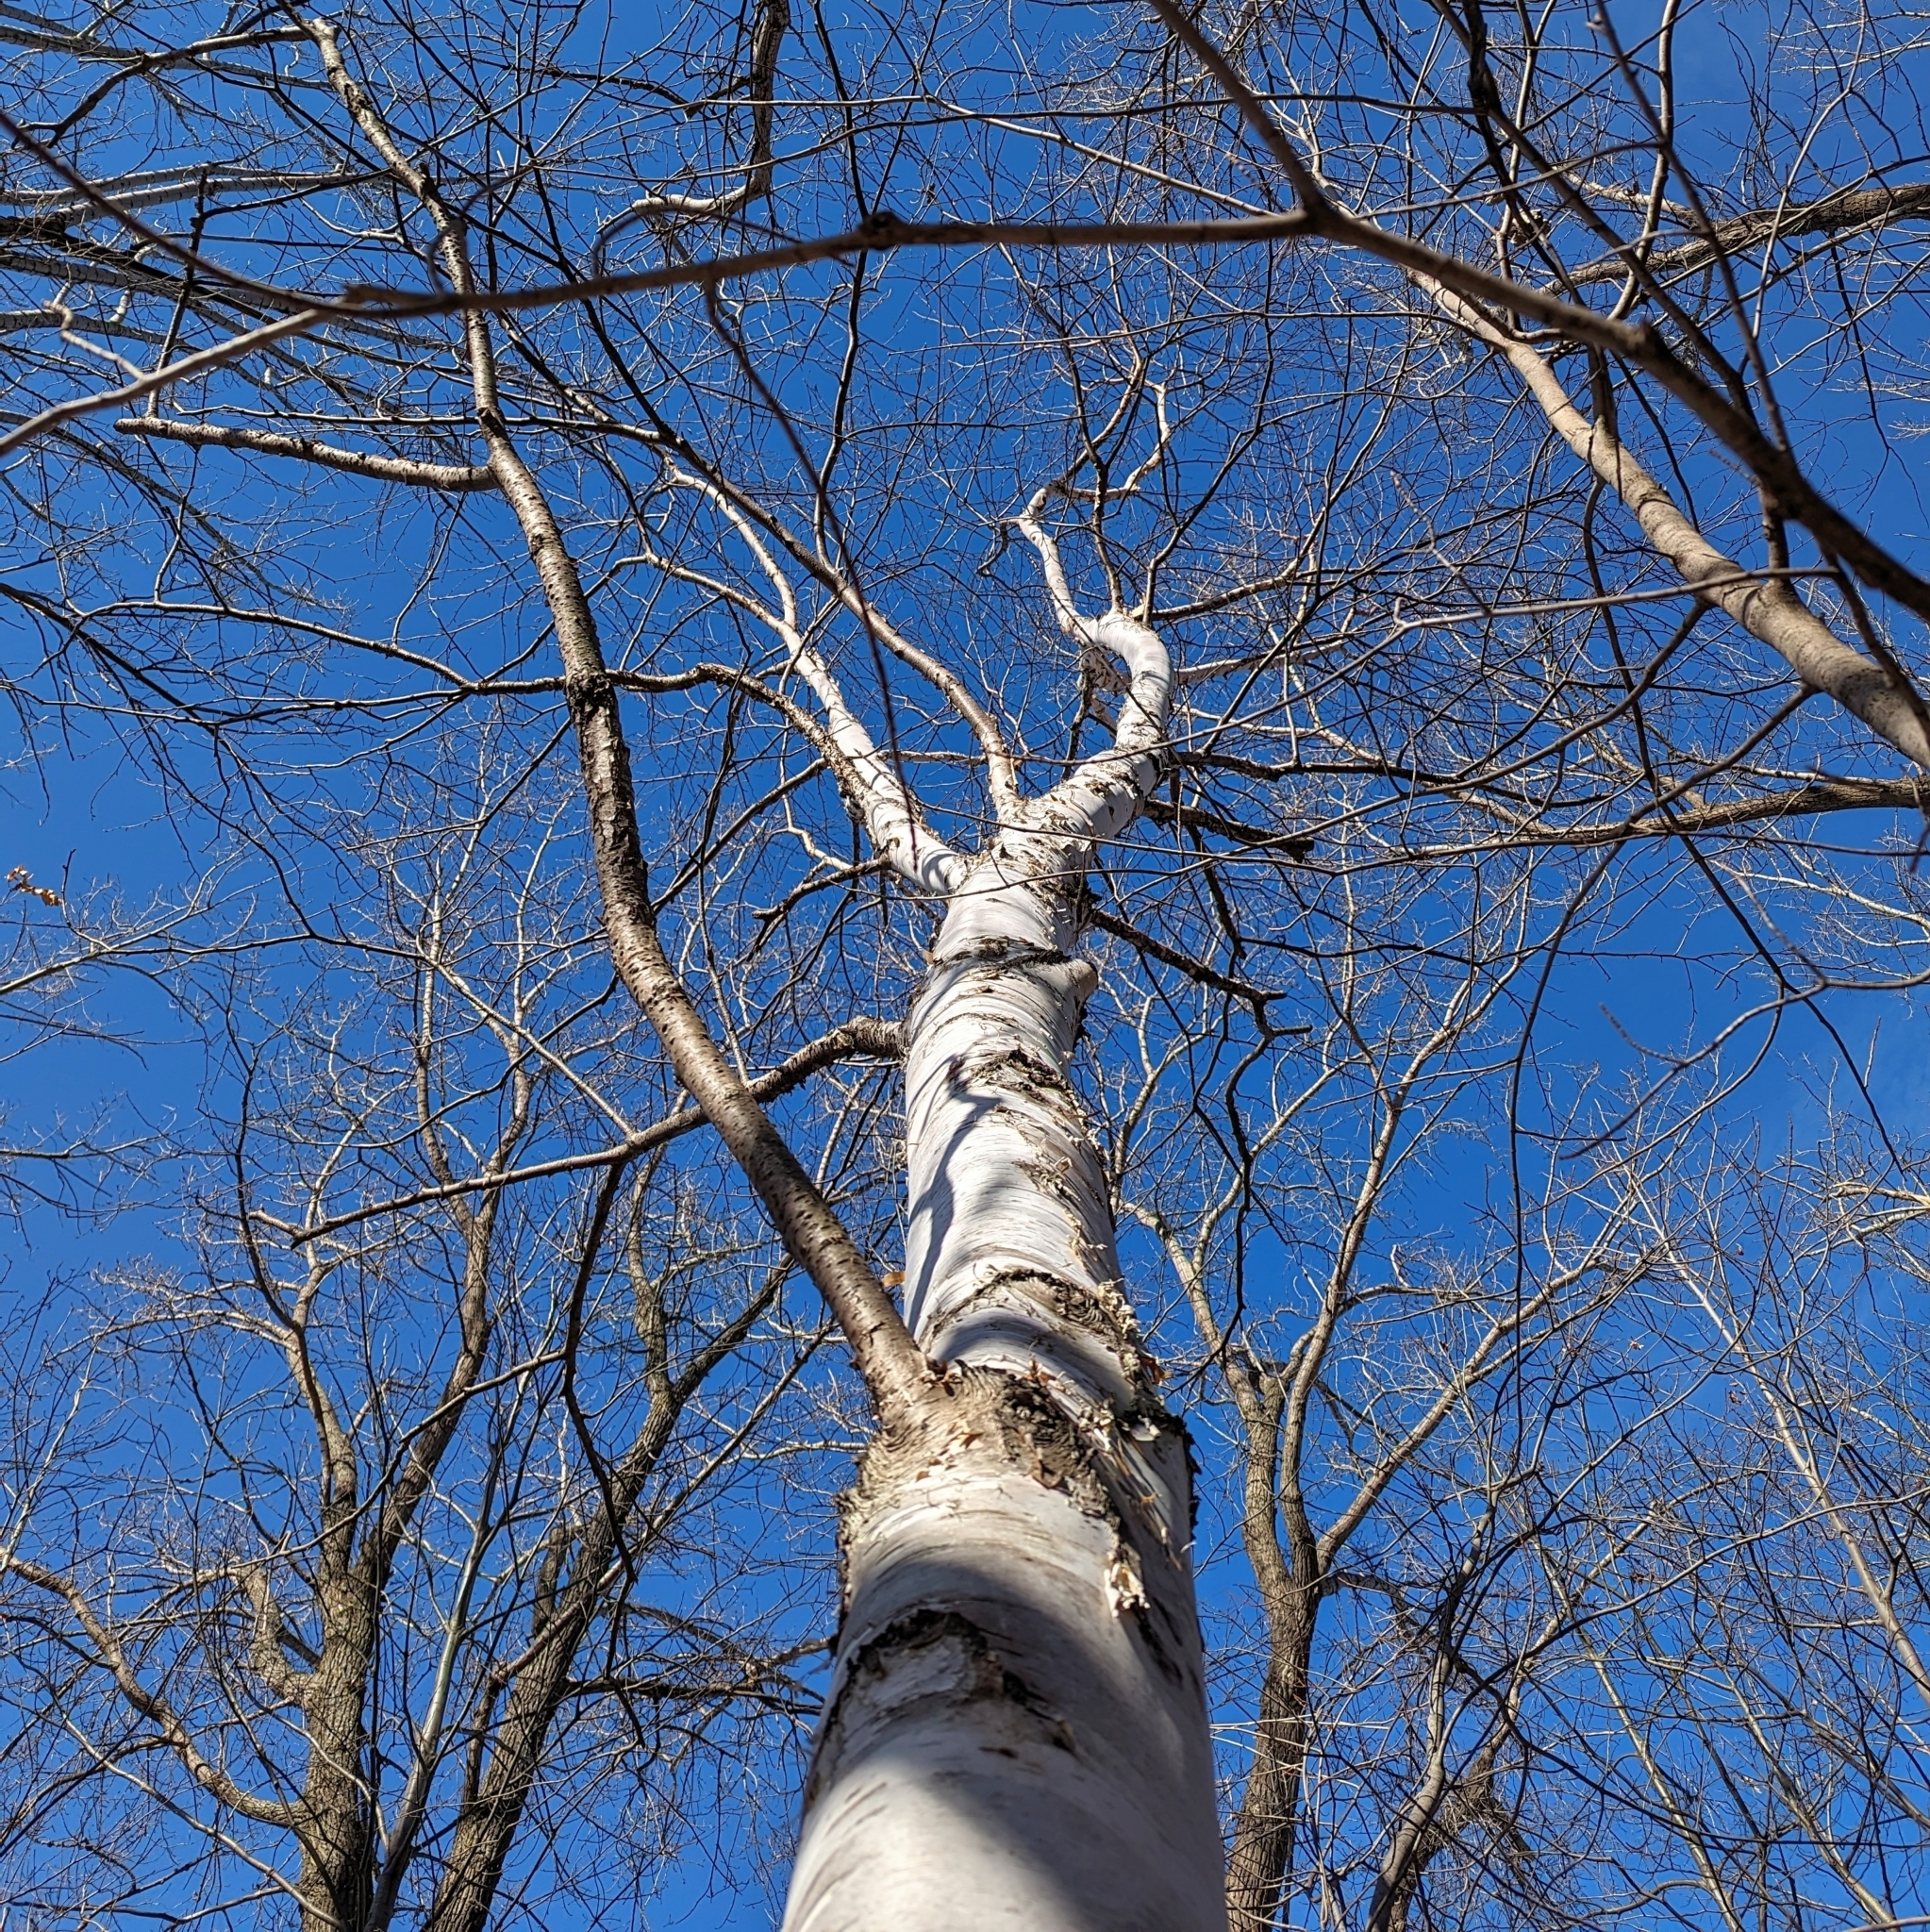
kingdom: Plantae
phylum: Tracheophyta
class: Magnoliopsida
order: Fagales
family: Betulaceae
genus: Betula
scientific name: Betula papyrifera
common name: Paper birch
